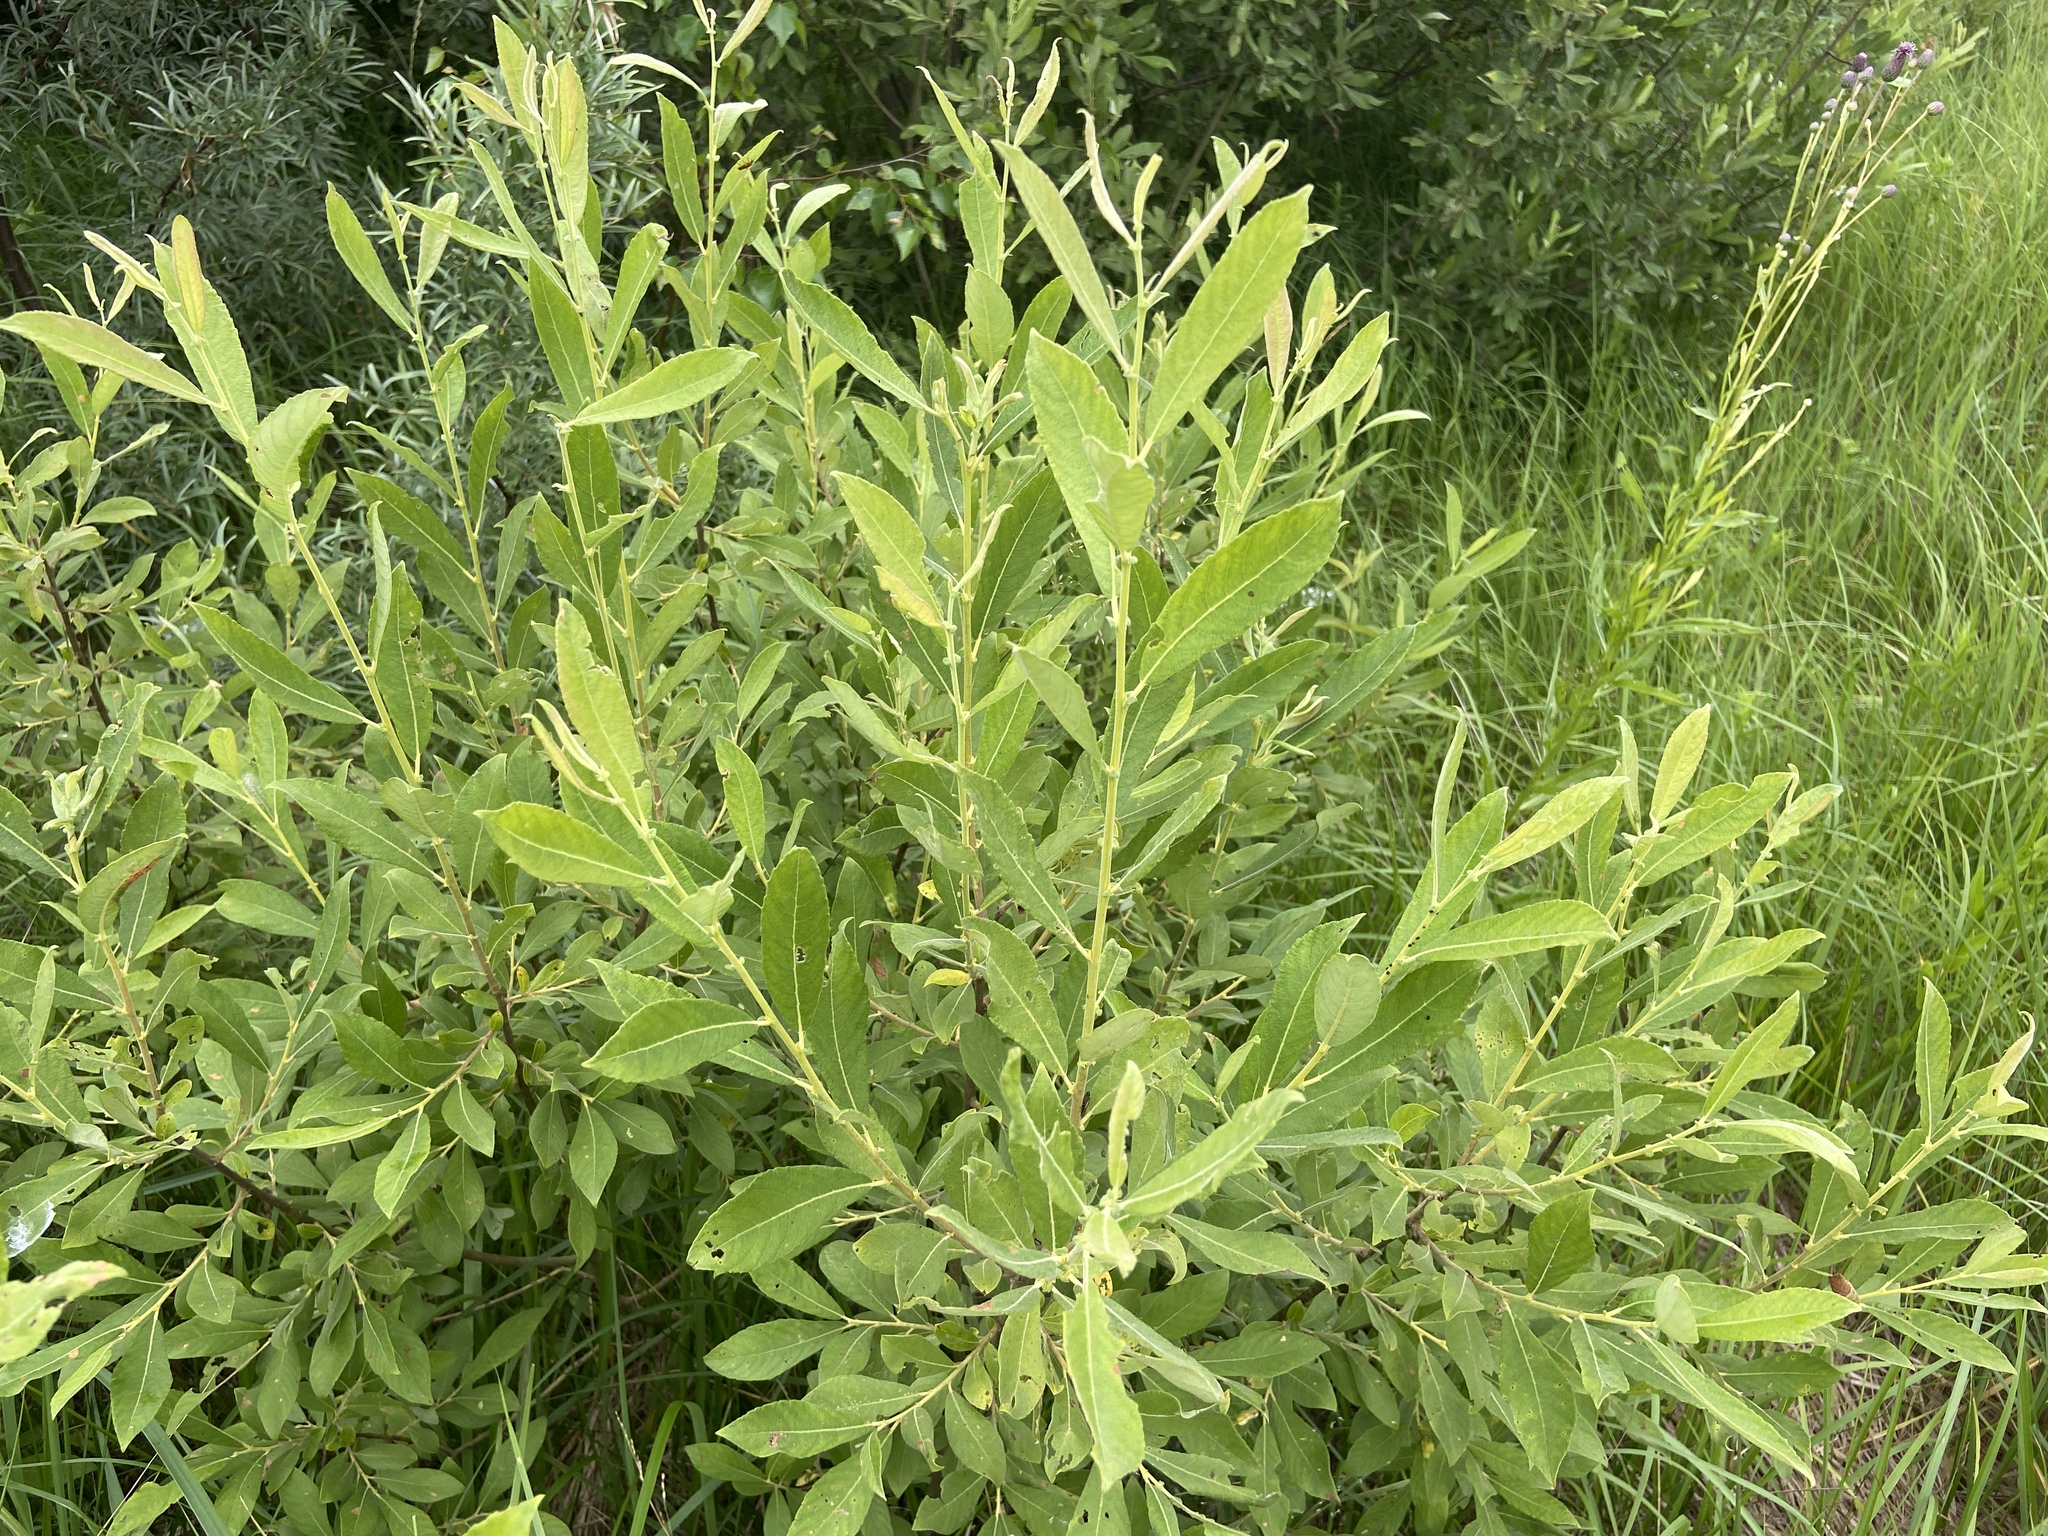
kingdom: Plantae
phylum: Tracheophyta
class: Magnoliopsida
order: Malpighiales
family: Salicaceae
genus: Salix
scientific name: Salix cinerea
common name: Common sallow
